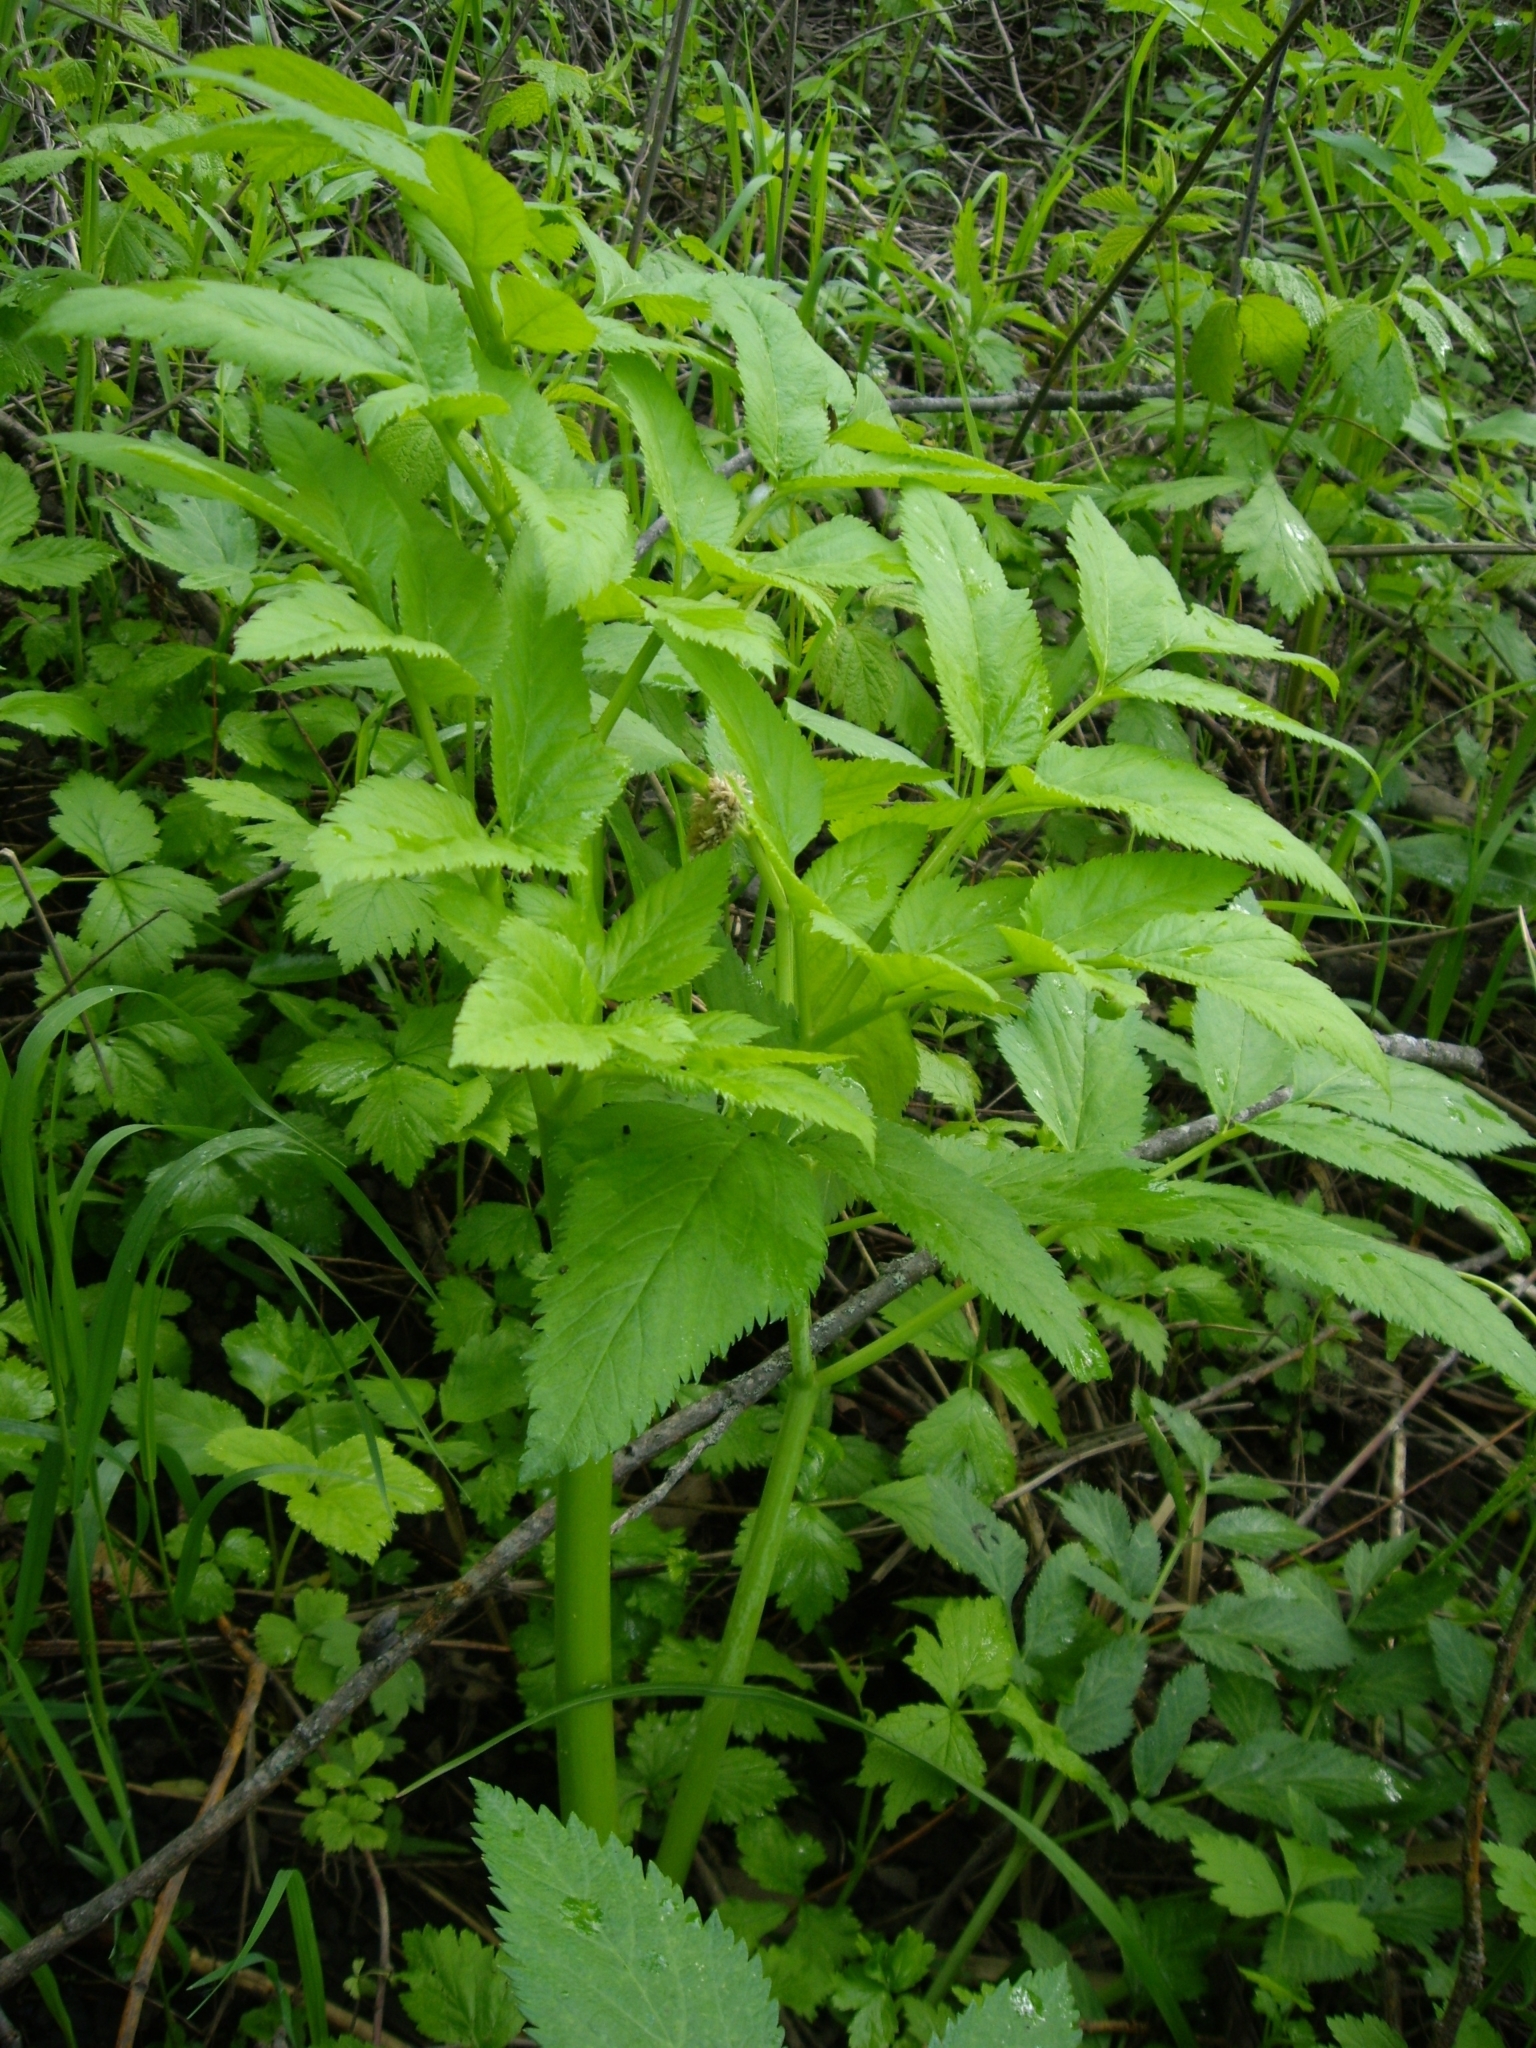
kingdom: Plantae
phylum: Tracheophyta
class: Magnoliopsida
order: Apiales
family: Apiaceae
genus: Angelica
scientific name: Angelica archangelica
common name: Garden angelica
